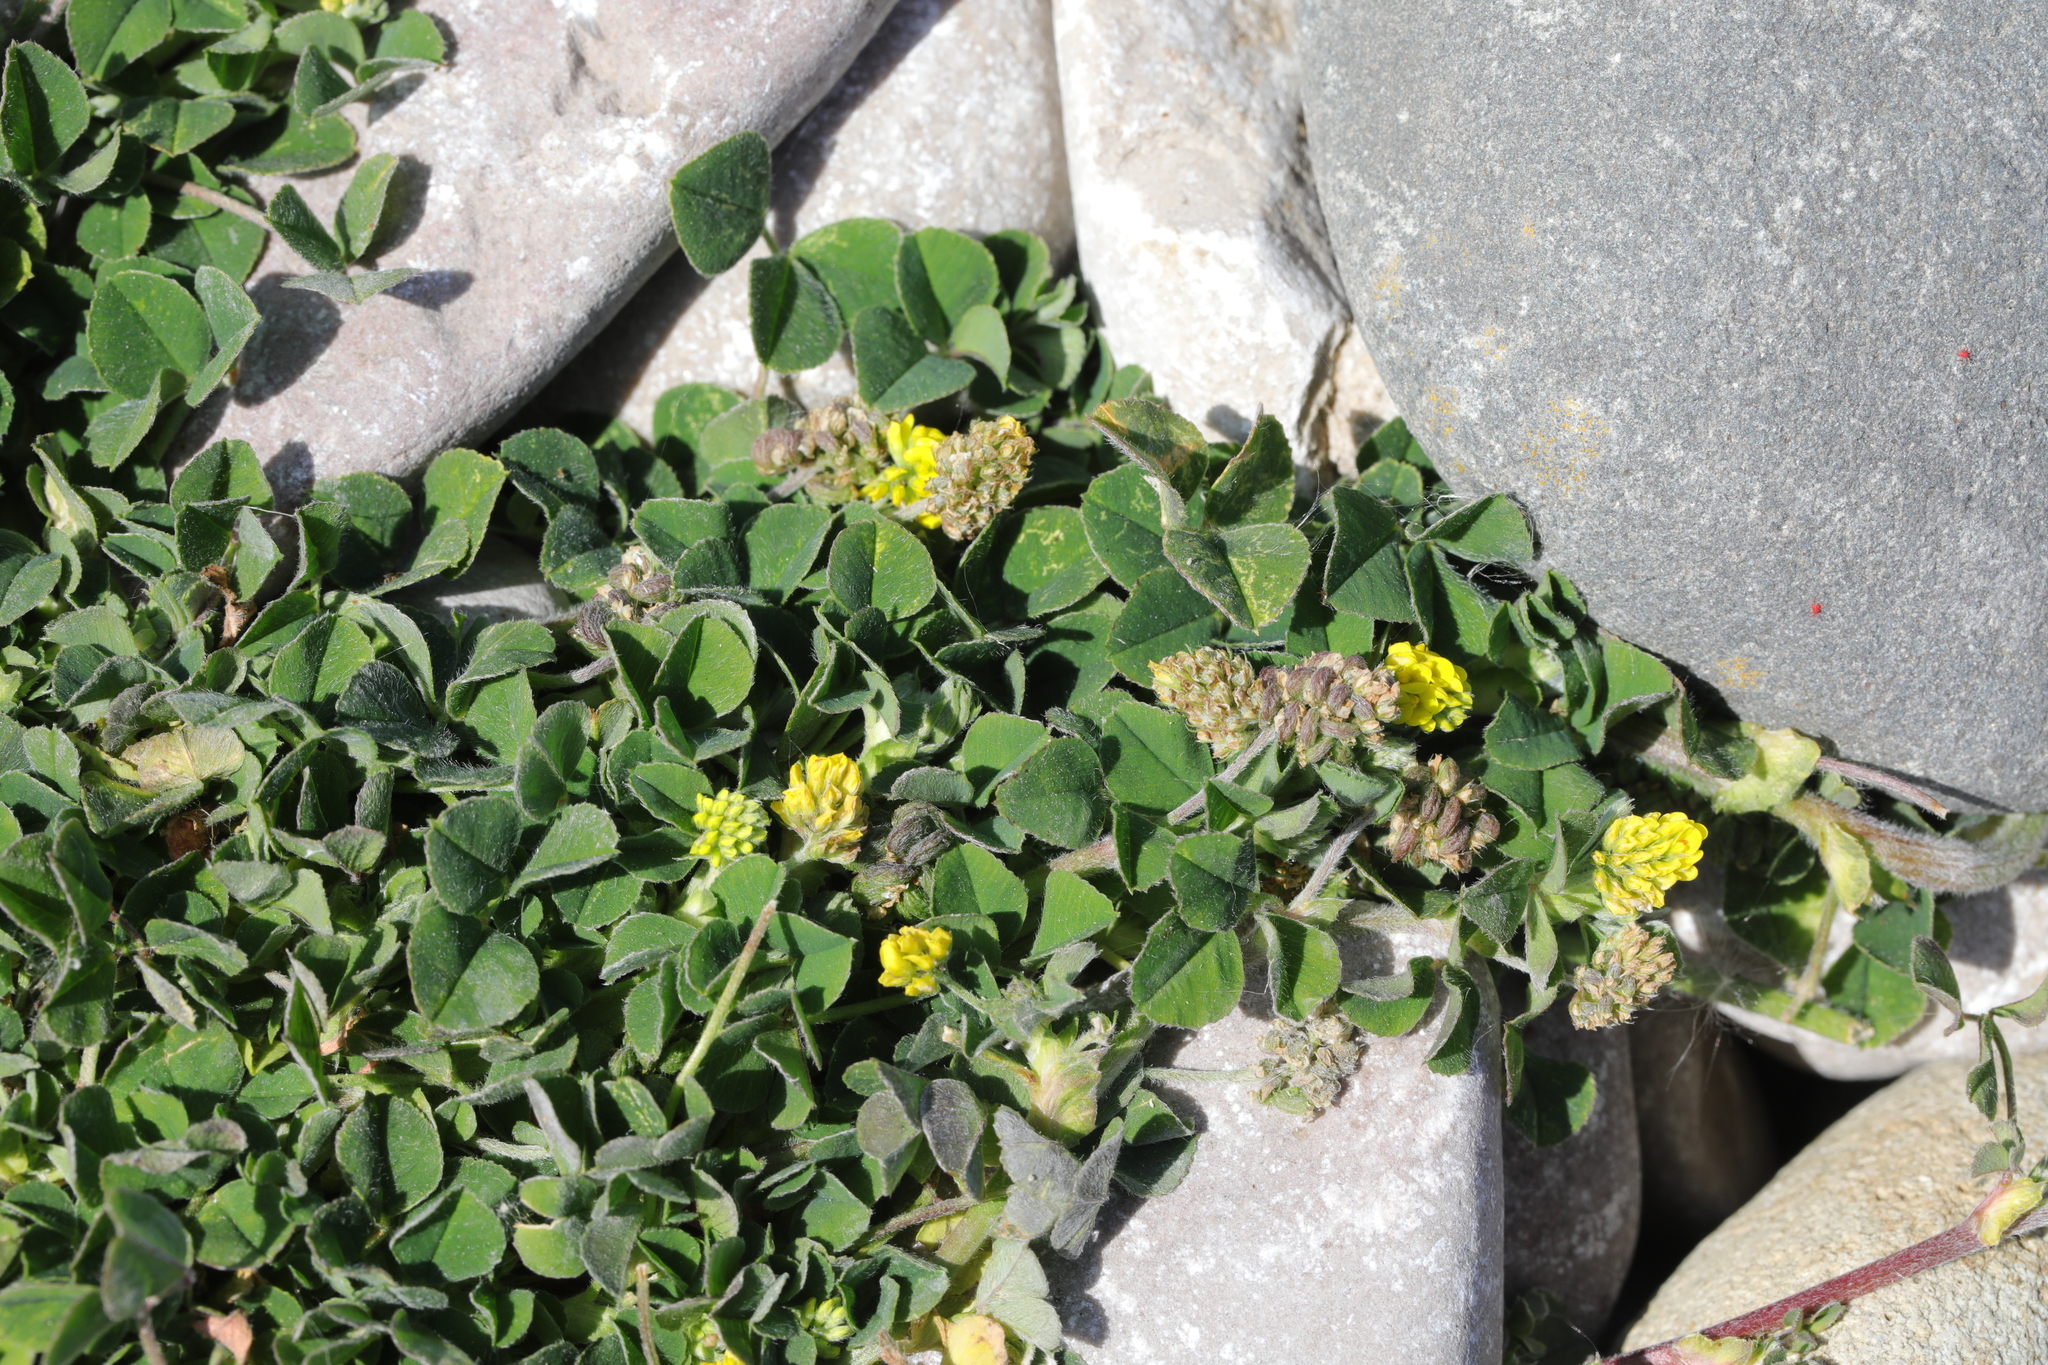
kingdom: Plantae
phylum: Tracheophyta
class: Magnoliopsida
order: Fabales
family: Fabaceae
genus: Medicago
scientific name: Medicago lupulina
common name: Black medick
